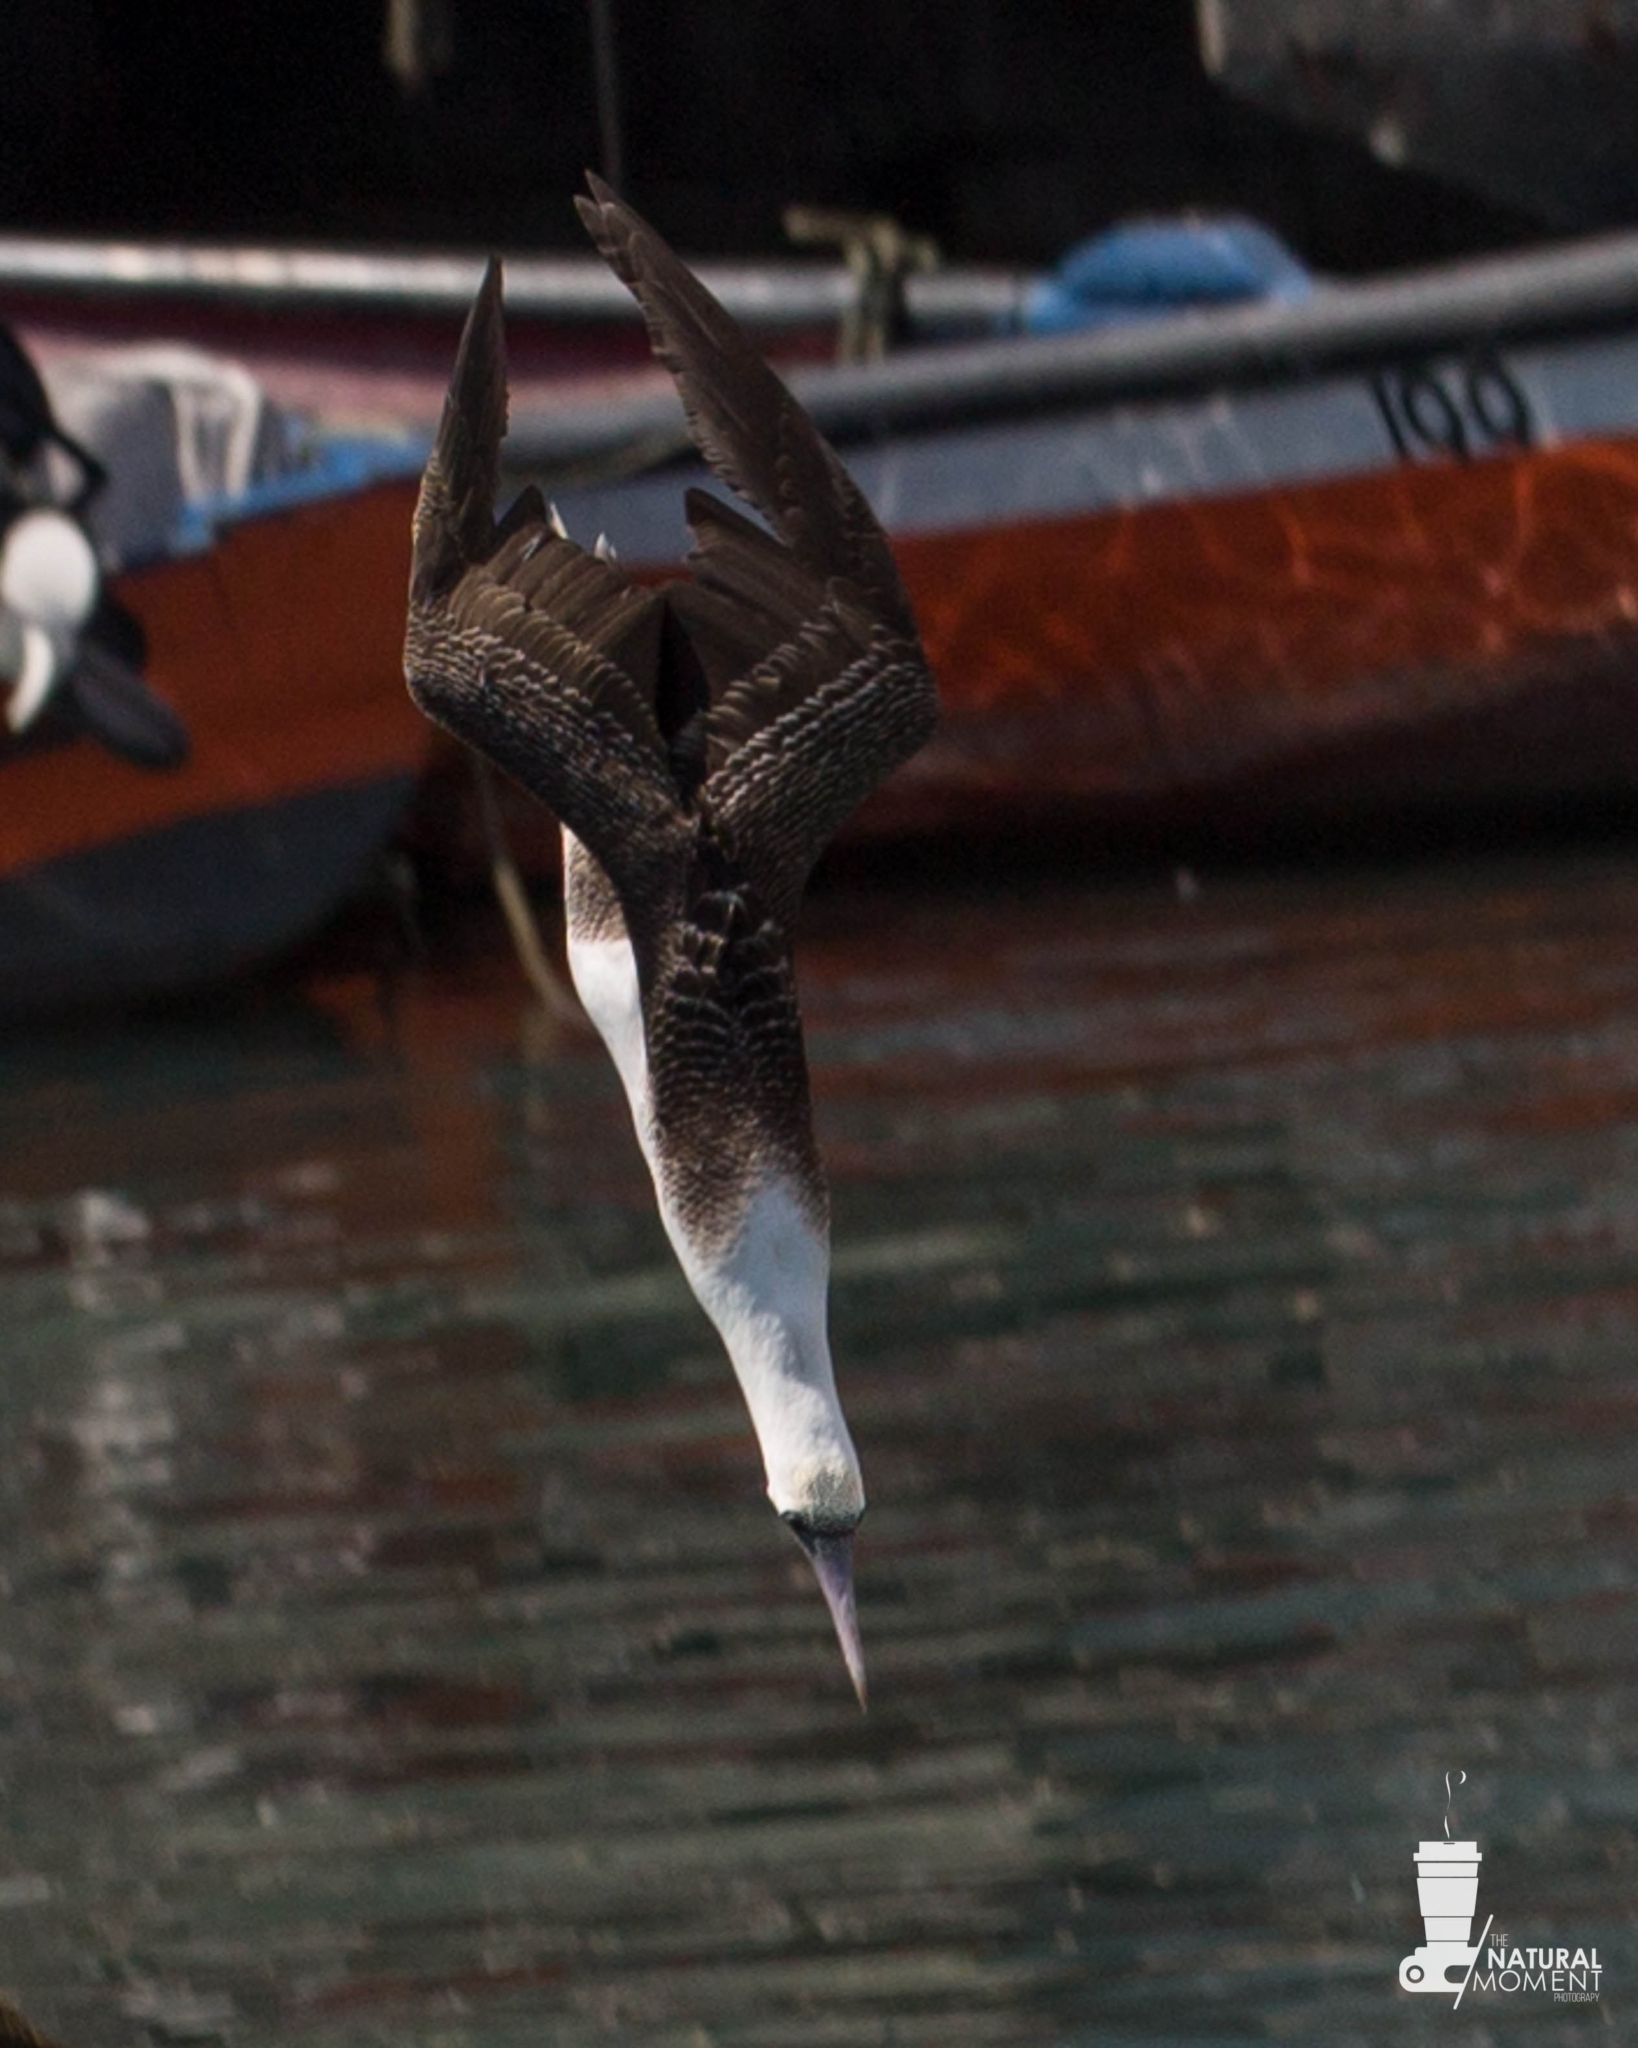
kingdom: Animalia
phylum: Chordata
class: Aves
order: Suliformes
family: Sulidae
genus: Sula
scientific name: Sula variegata
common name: Peruvian booby
